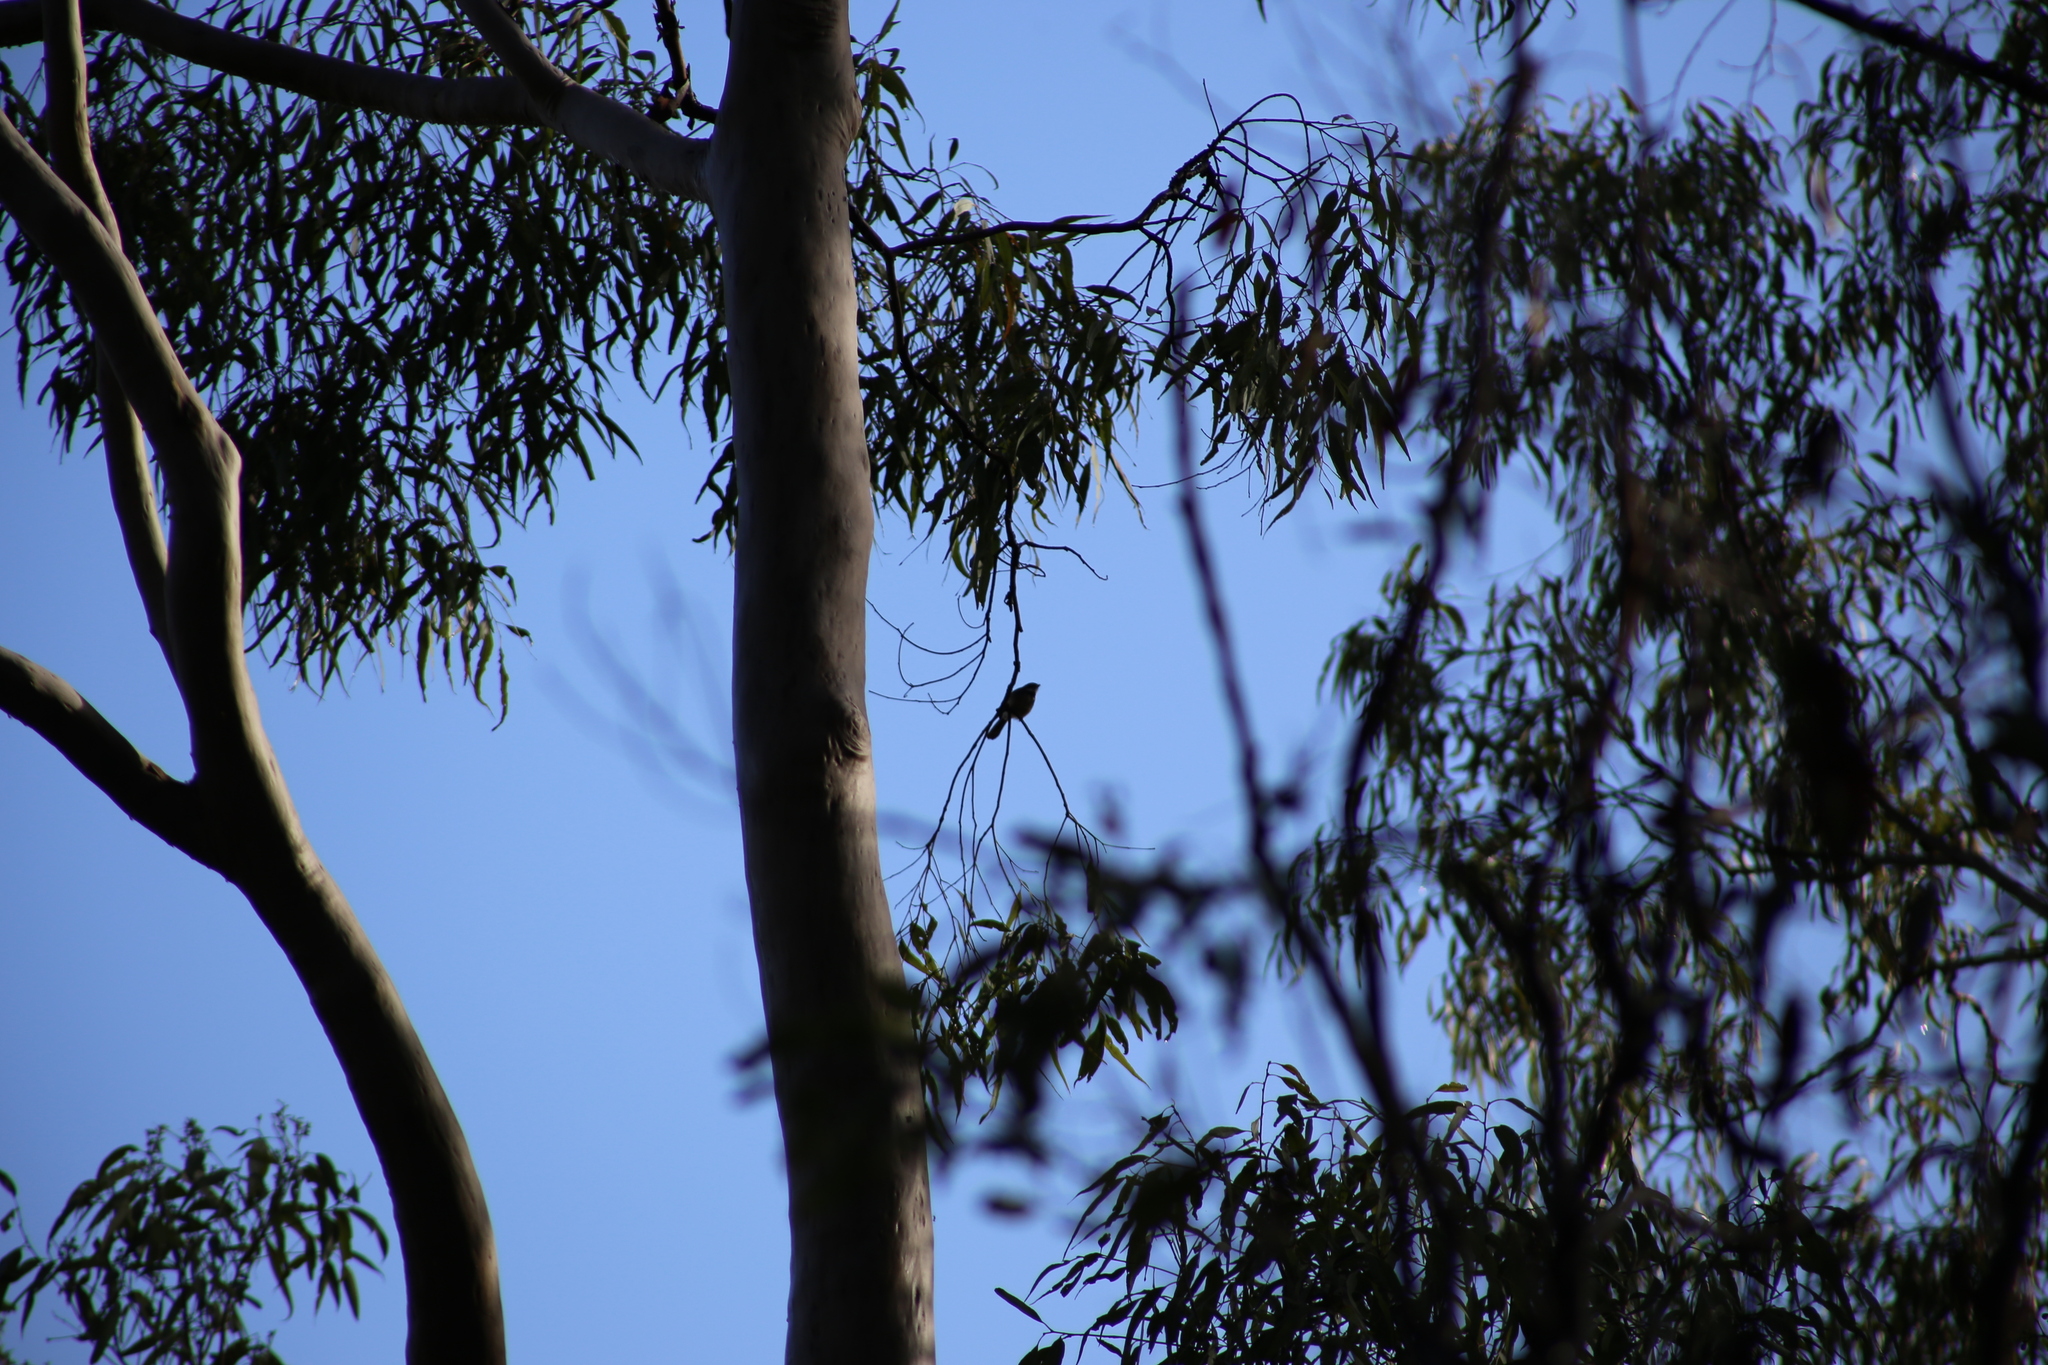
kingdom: Animalia
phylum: Chordata
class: Aves
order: Passeriformes
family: Rhipiduridae
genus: Rhipidura
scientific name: Rhipidura albiscapa
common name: Grey fantail
